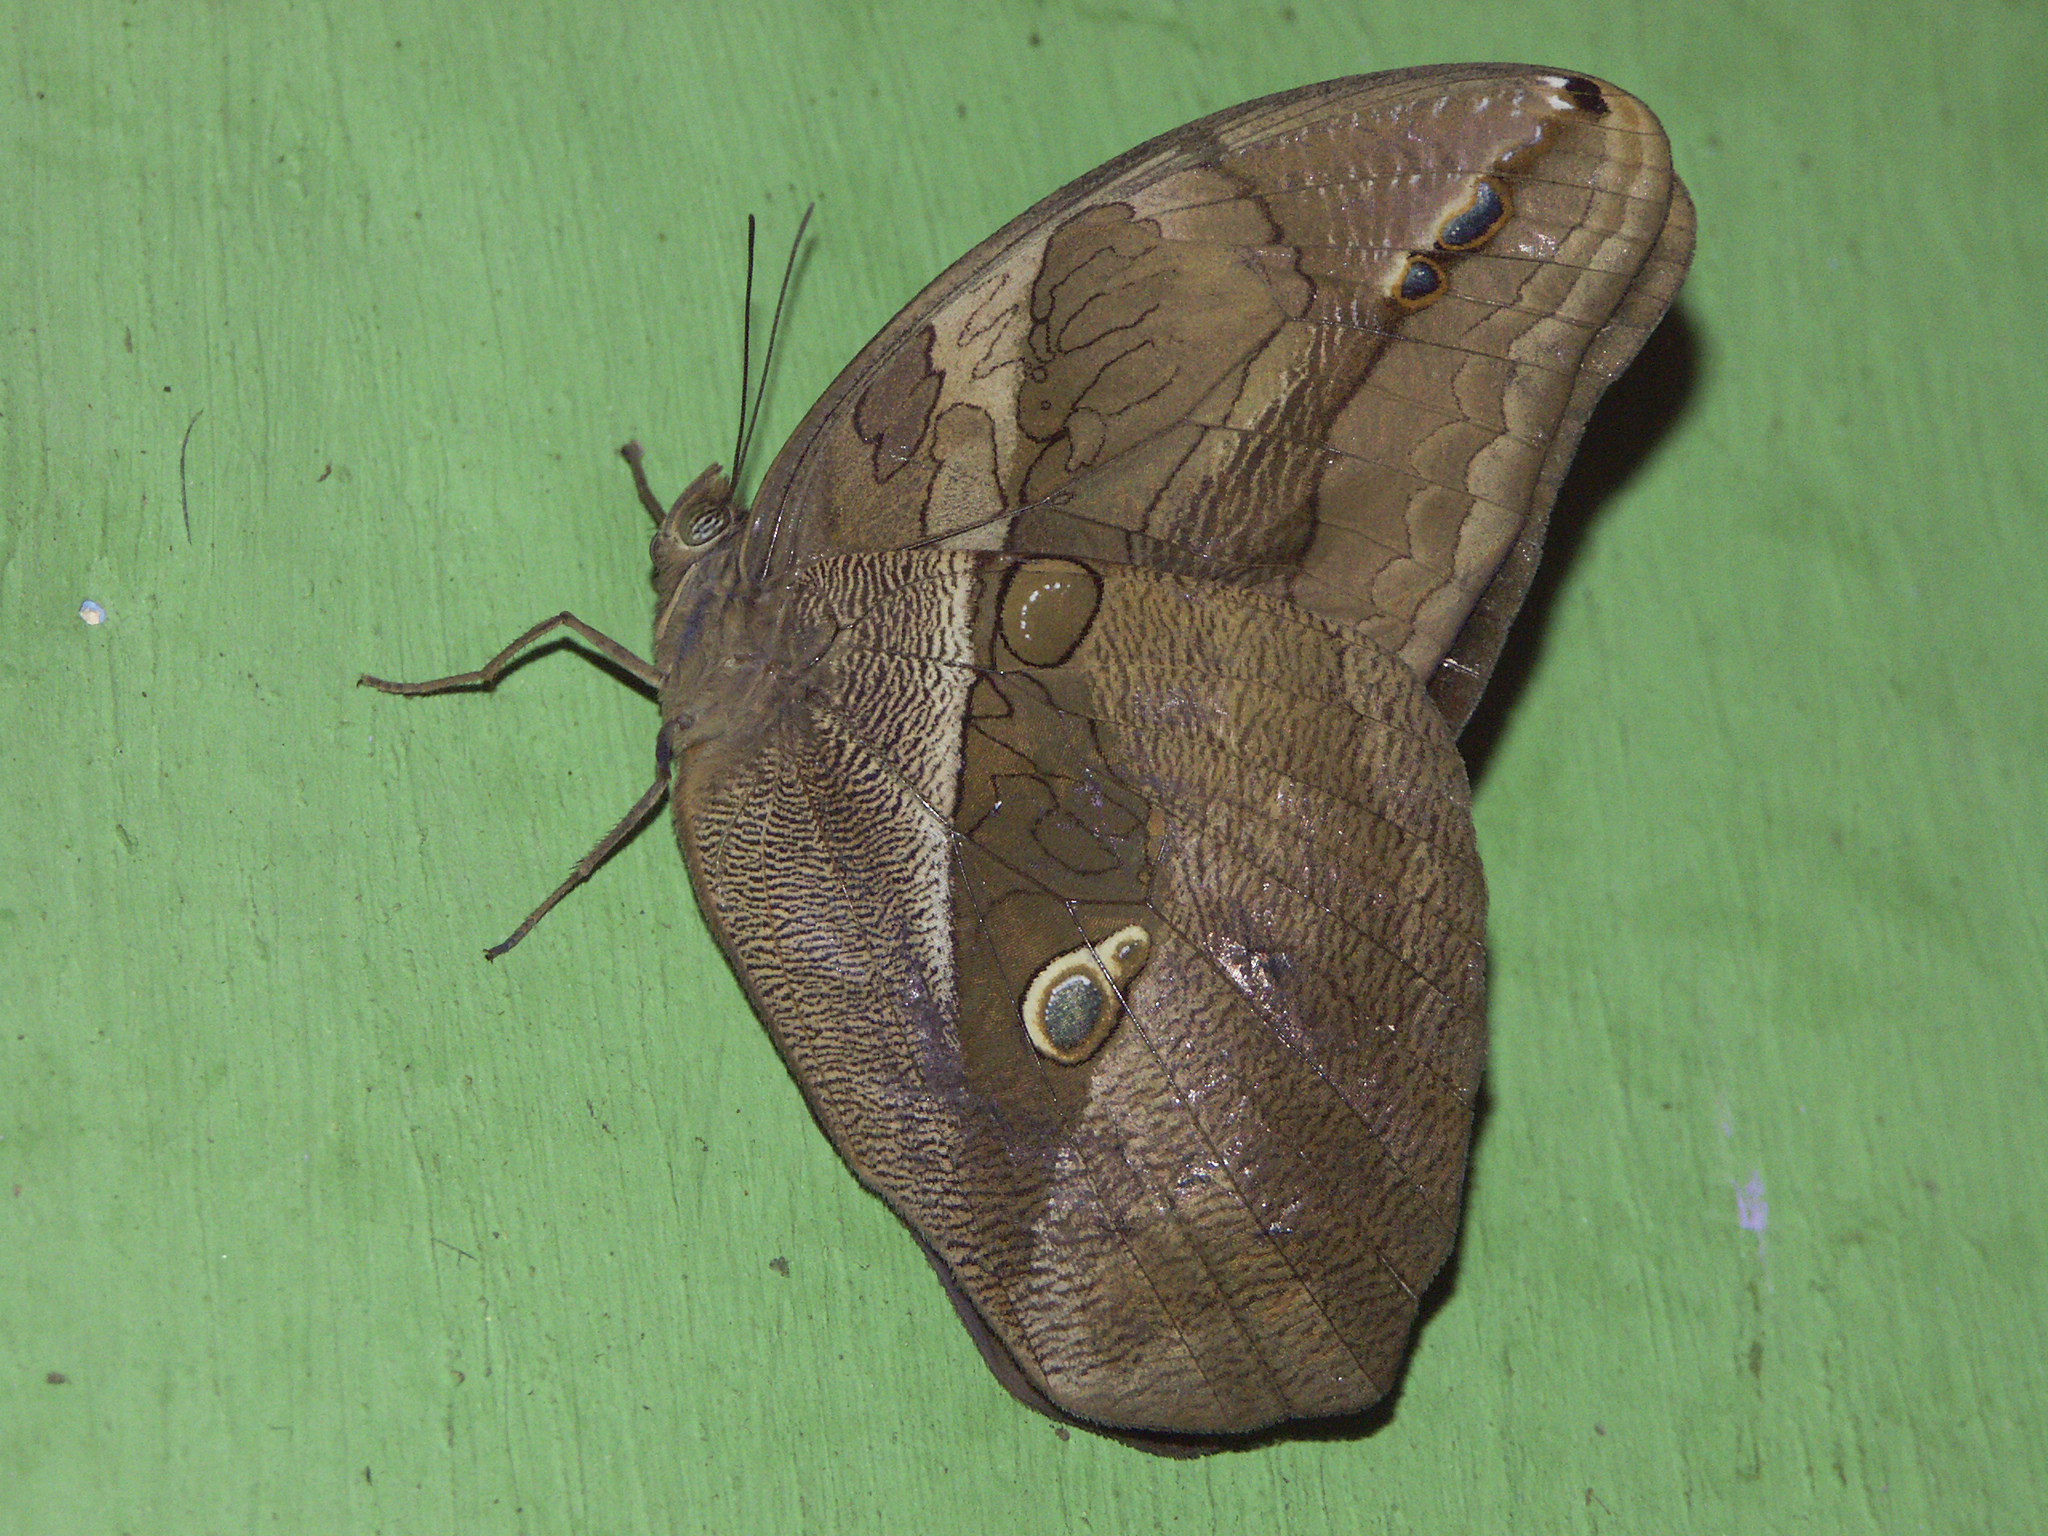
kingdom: Animalia
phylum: Arthropoda
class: Insecta
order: Lepidoptera
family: Nymphalidae
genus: Eryphanis
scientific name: Eryphanis lycomedon
